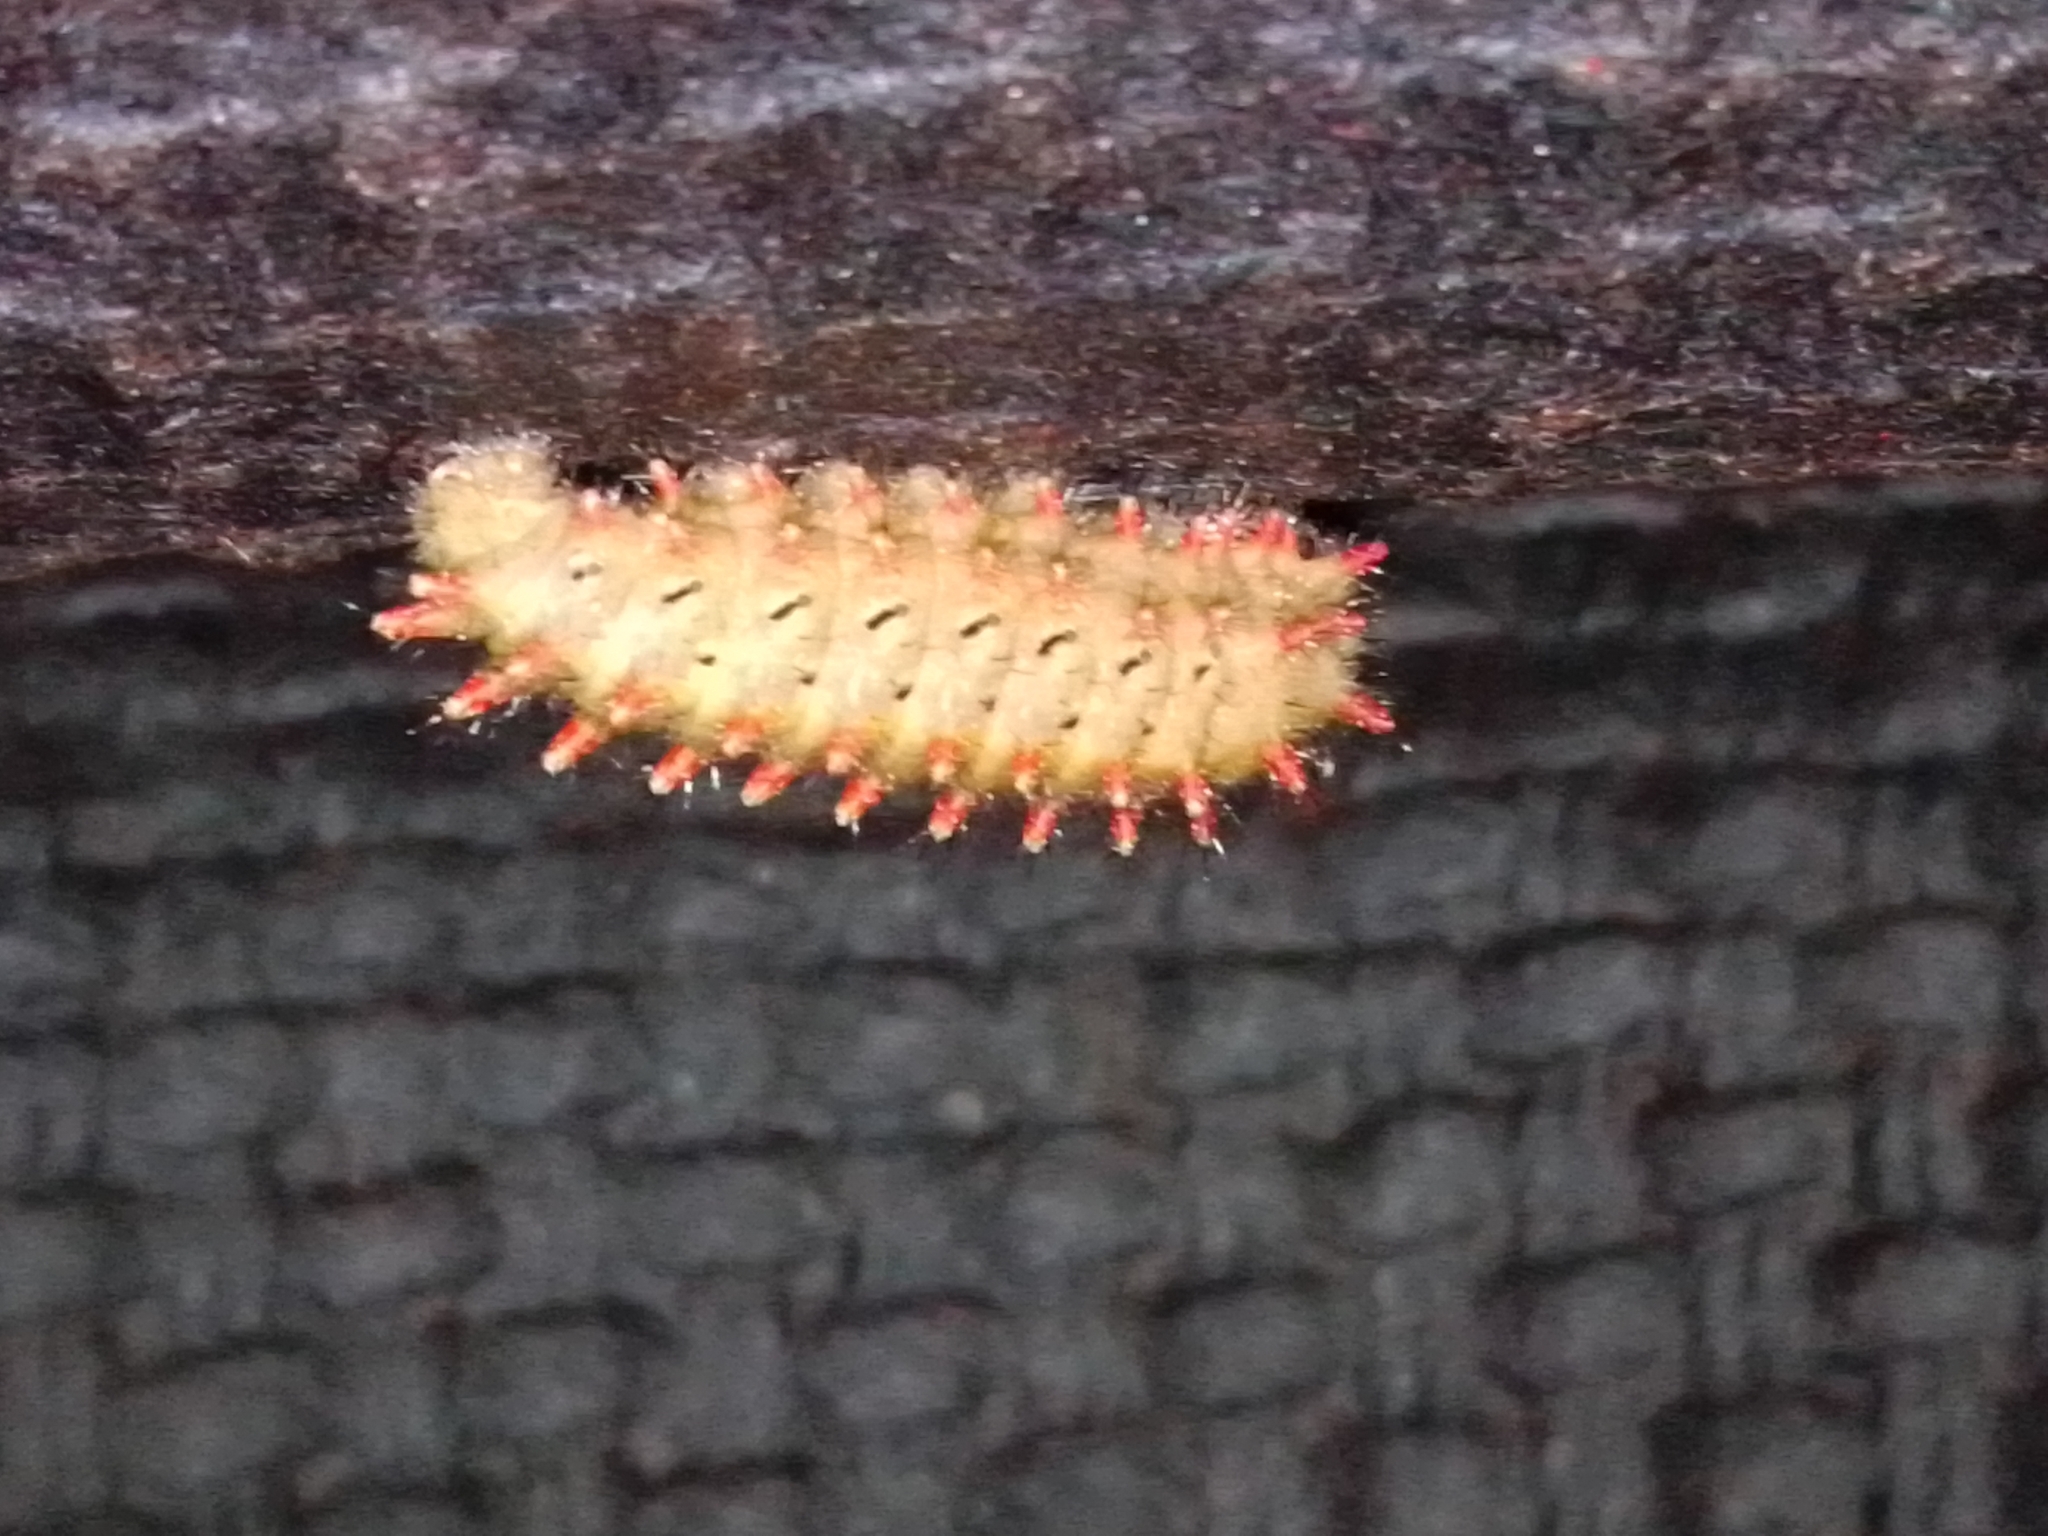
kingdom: Animalia
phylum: Arthropoda
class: Insecta
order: Lepidoptera
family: Papilionidae
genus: Zerynthia
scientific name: Zerynthia rumina
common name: Spanish festoon
